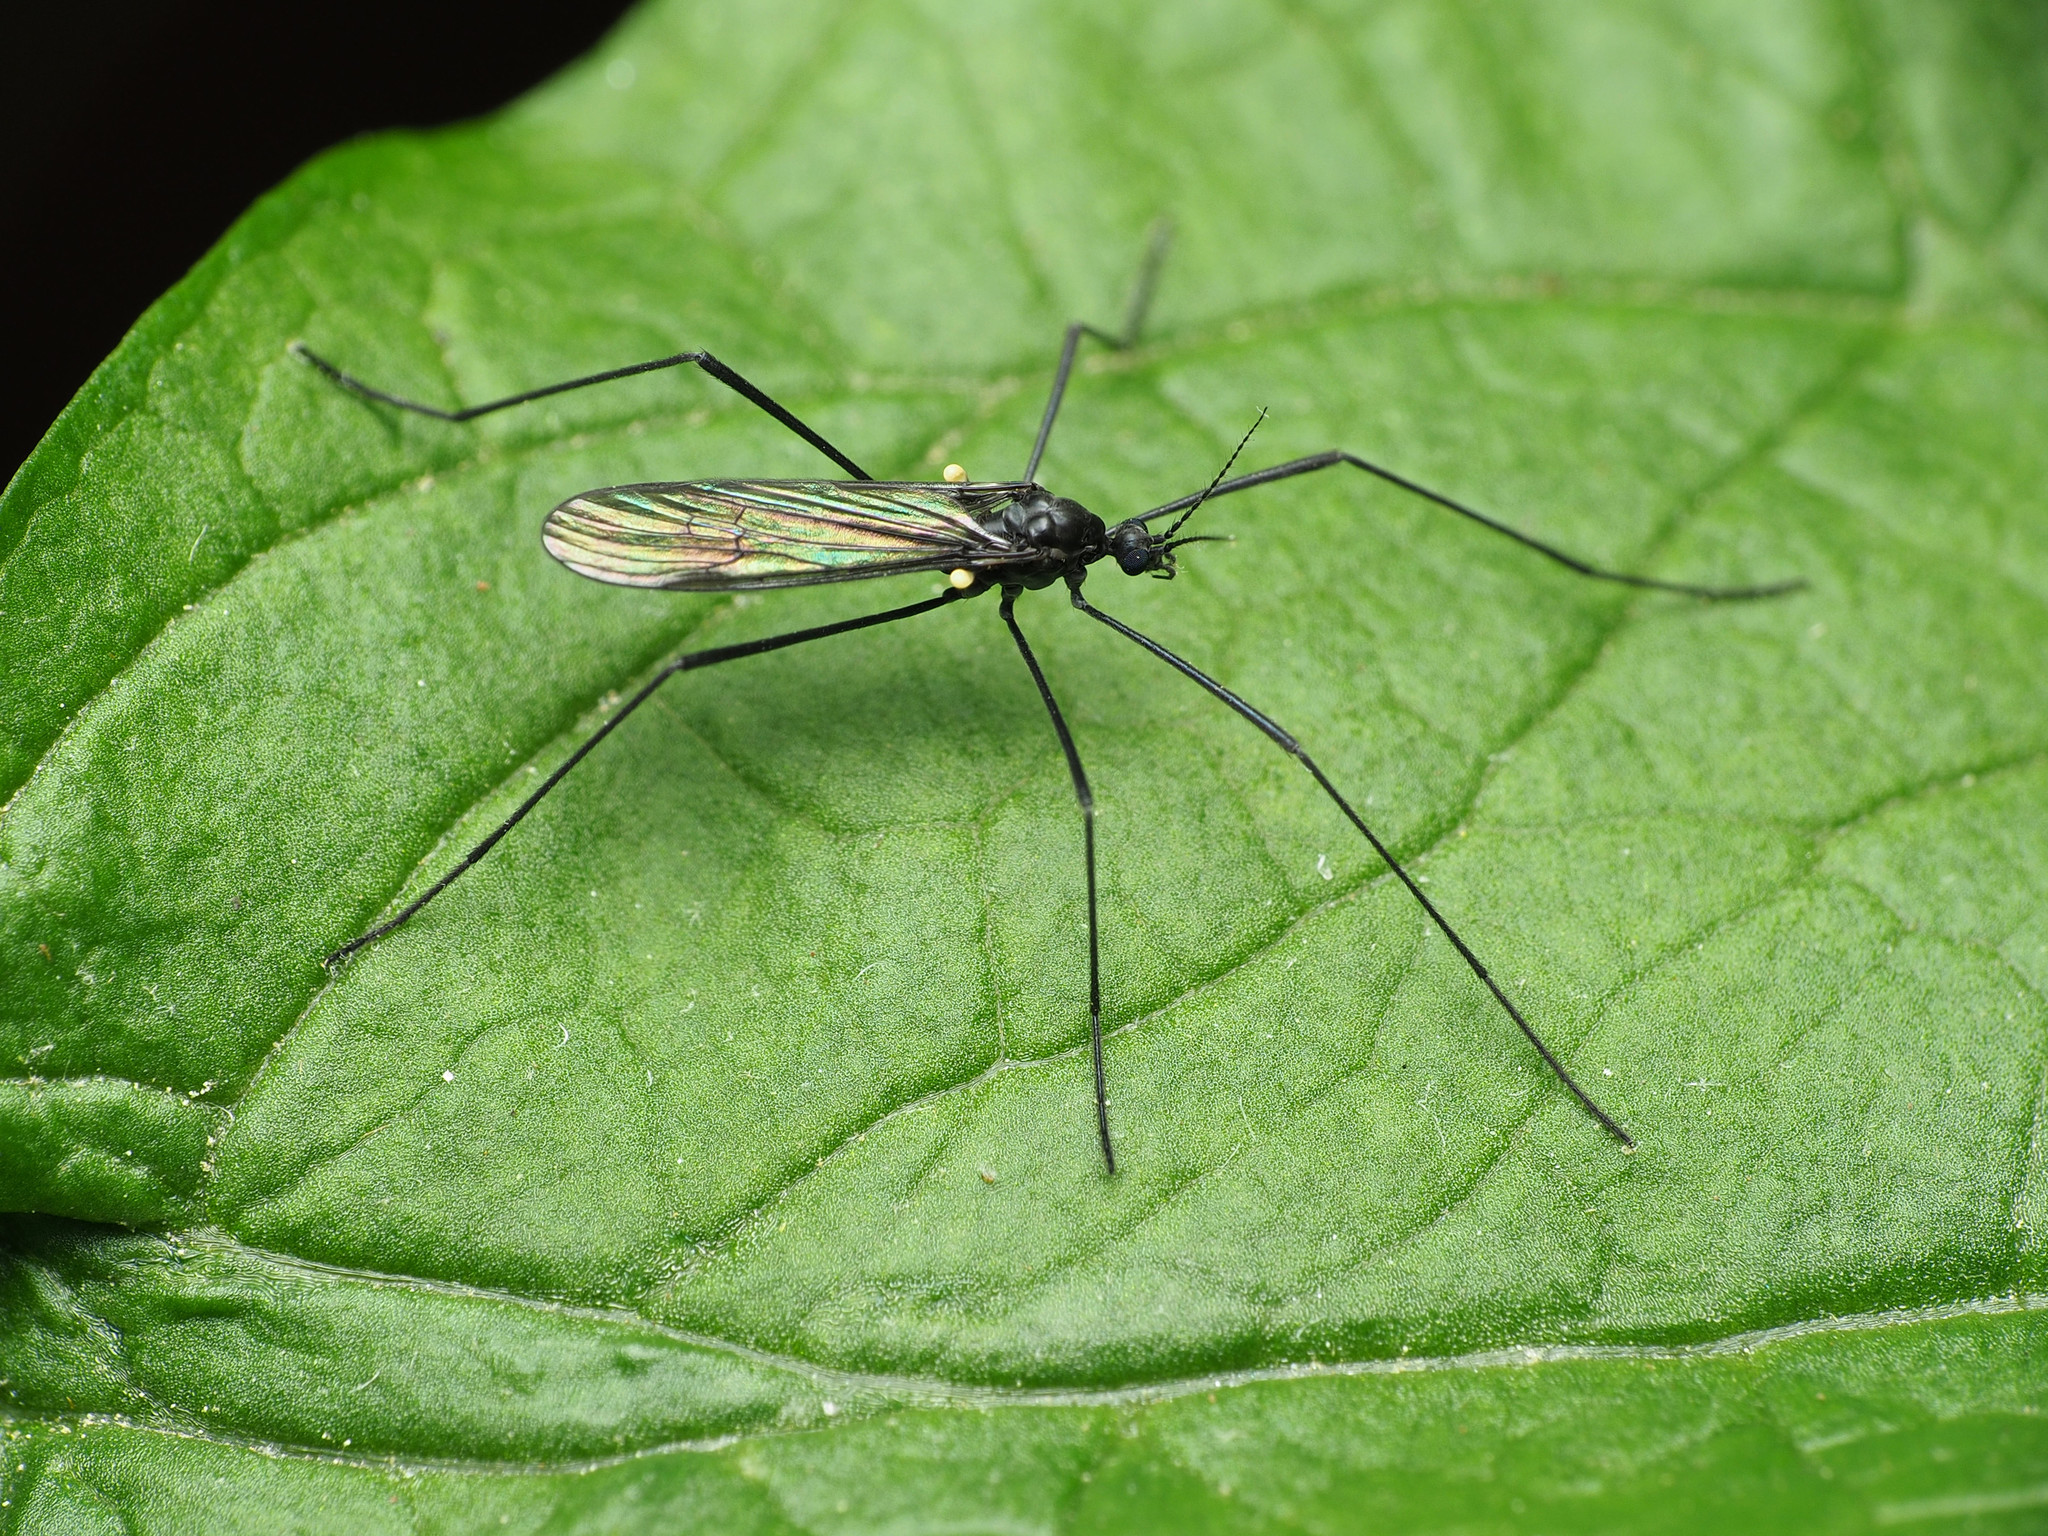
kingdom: Animalia
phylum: Arthropoda
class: Insecta
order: Diptera
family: Limoniidae
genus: Gnophomyia
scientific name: Gnophomyia tristissima
